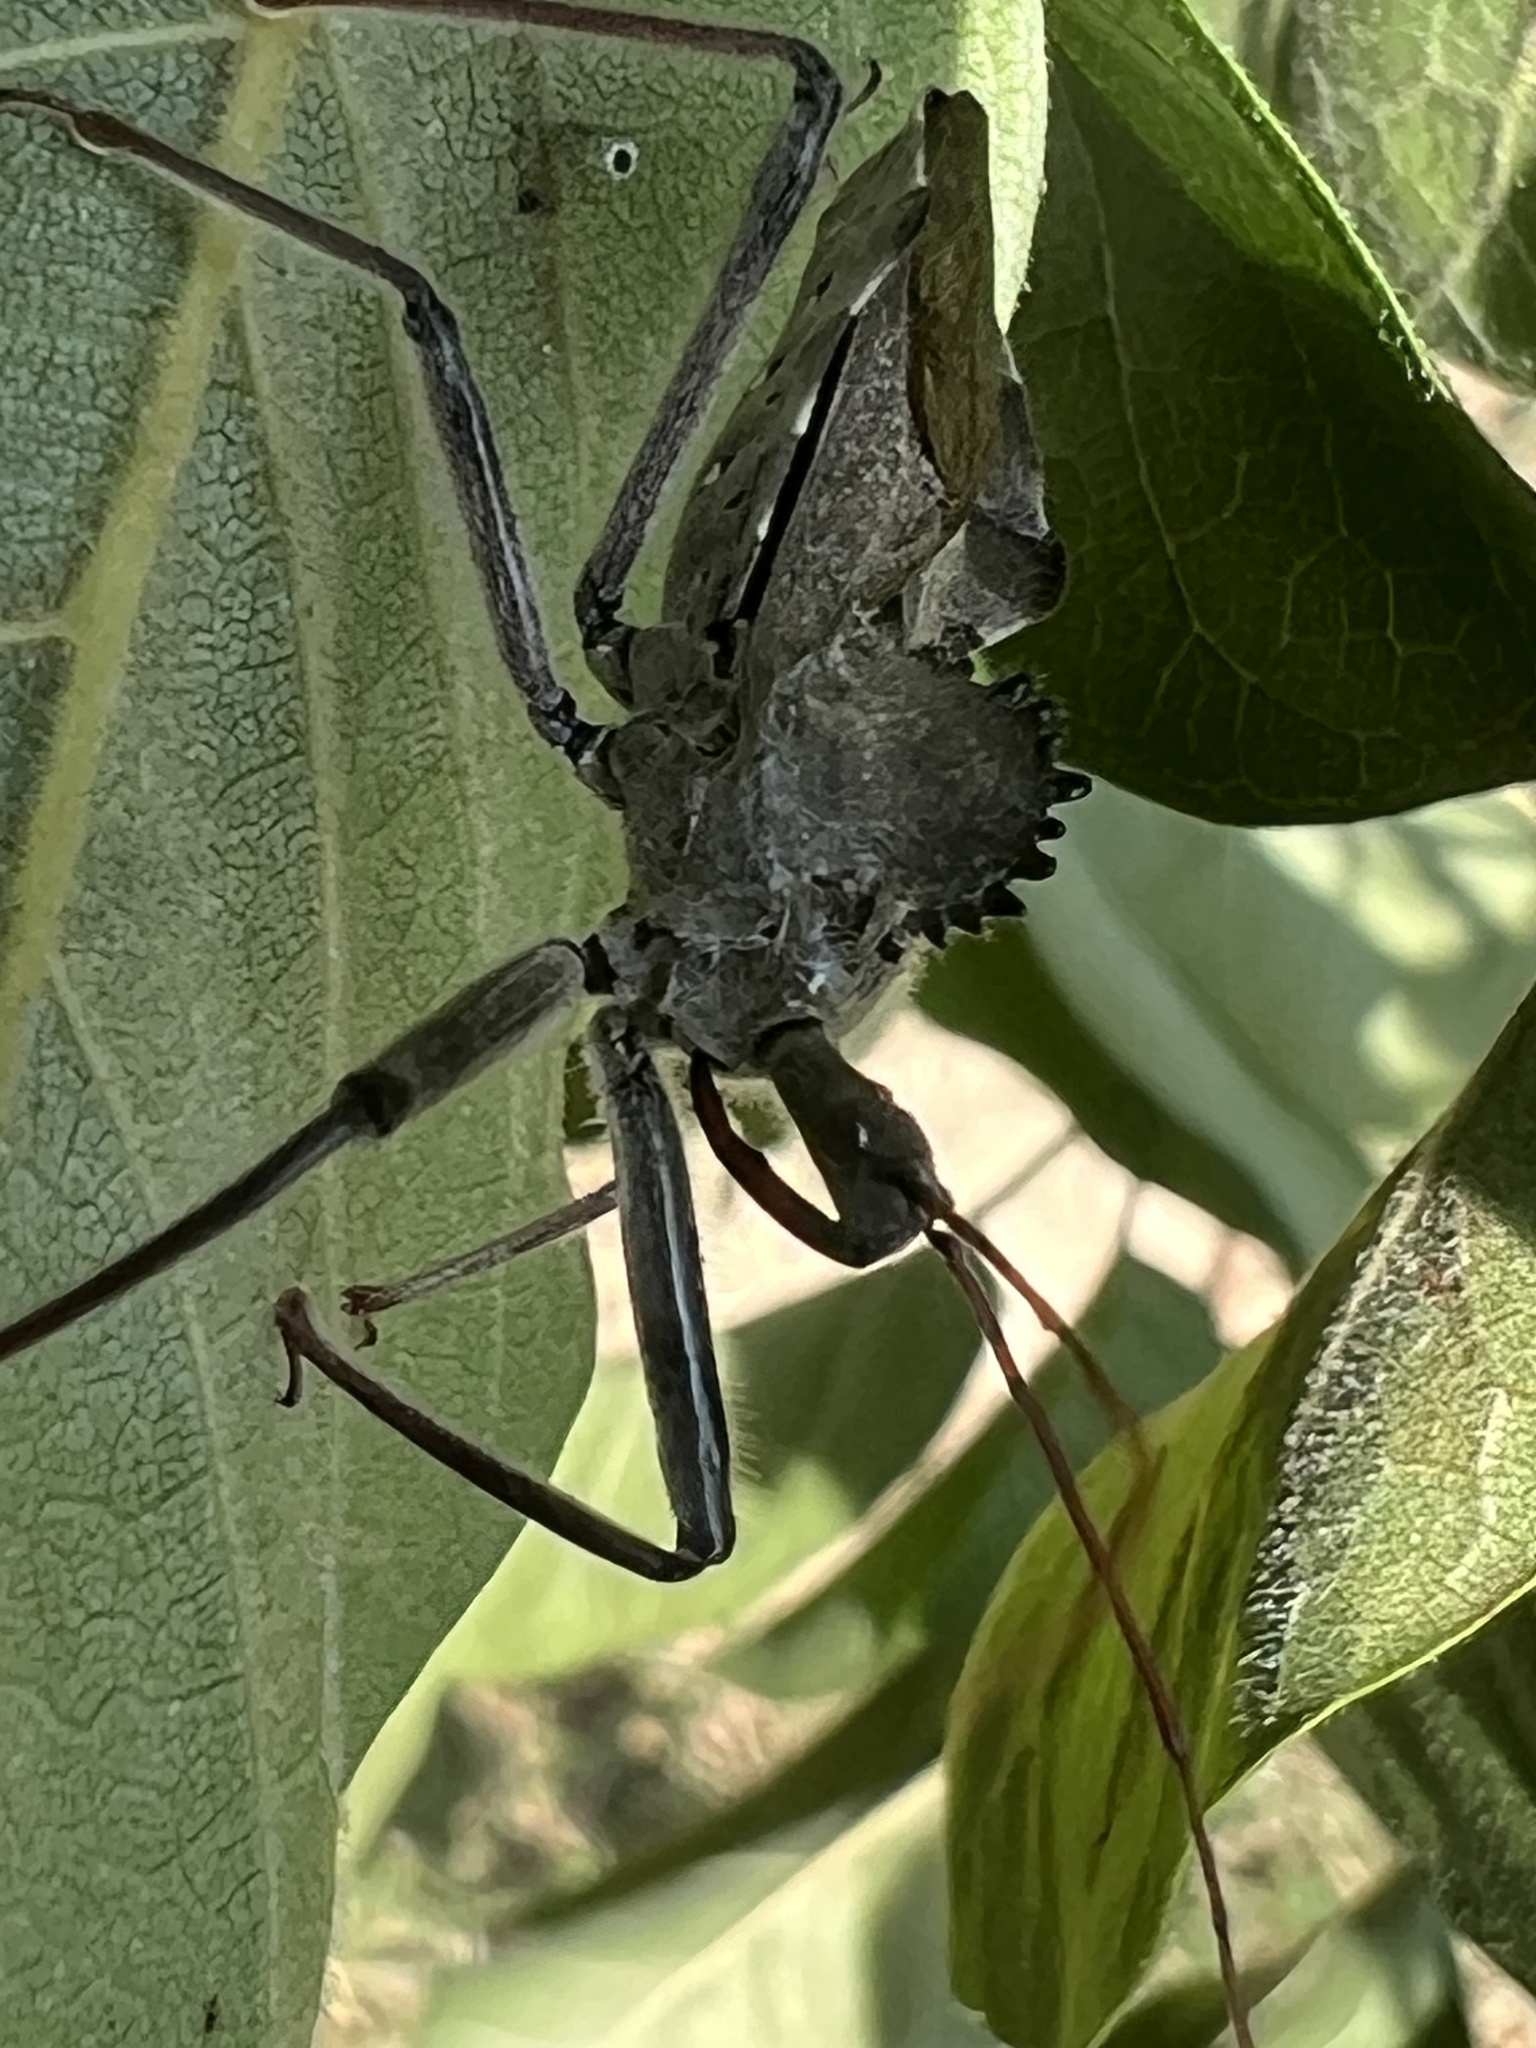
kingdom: Animalia
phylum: Arthropoda
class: Insecta
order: Hemiptera
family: Reduviidae
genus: Arilus
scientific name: Arilus cristatus
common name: North american wheel bug
